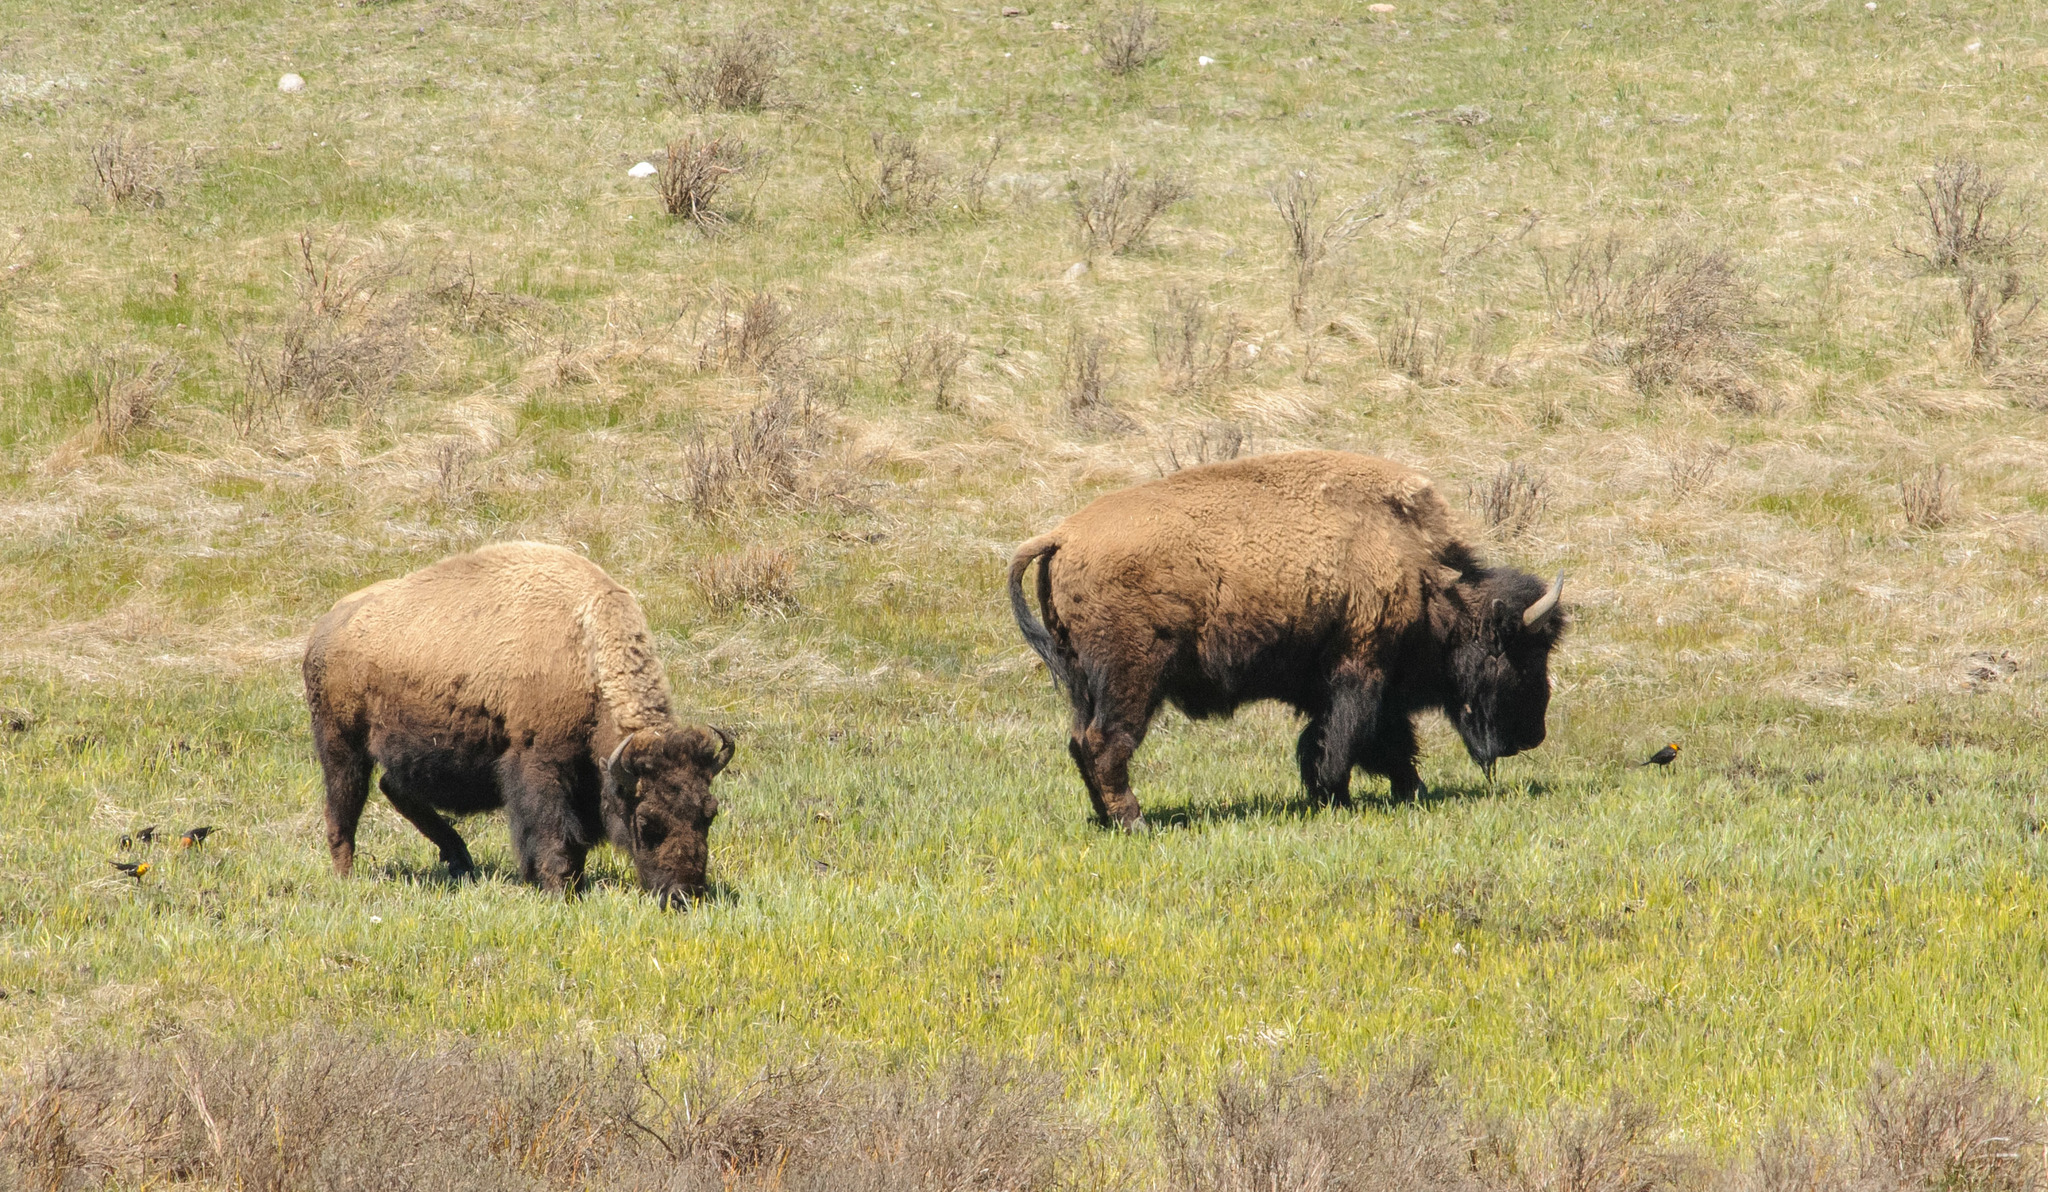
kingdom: Animalia
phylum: Chordata
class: Mammalia
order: Artiodactyla
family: Bovidae
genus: Bison
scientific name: Bison bison
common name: American bison
